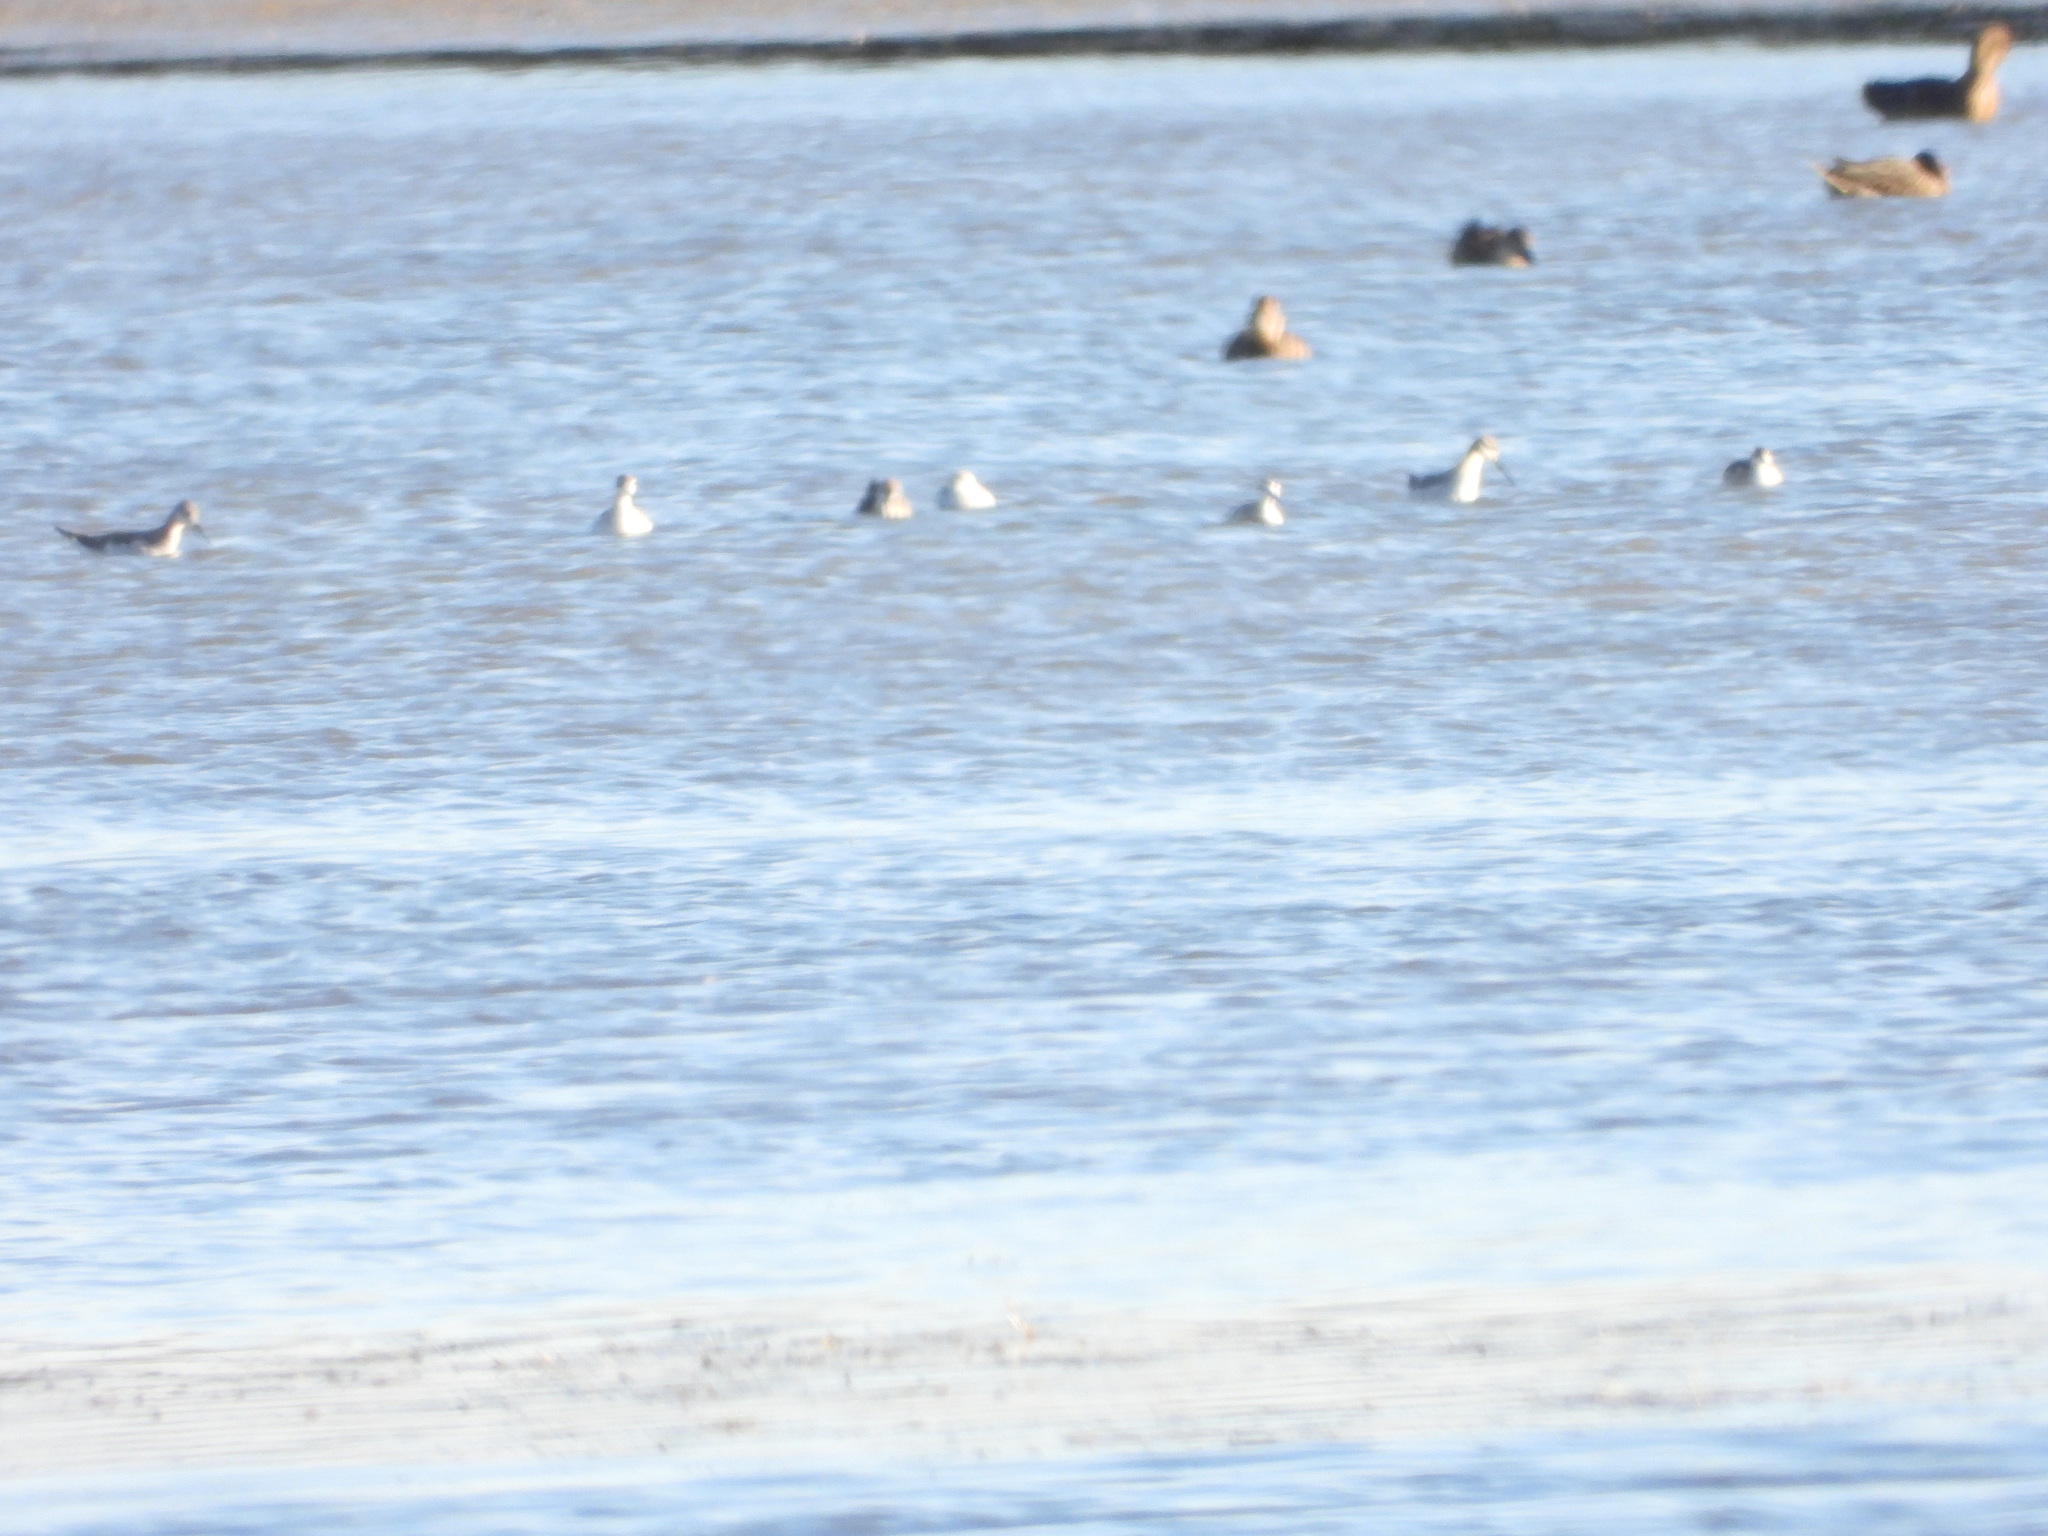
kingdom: Animalia
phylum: Chordata
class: Aves
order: Charadriiformes
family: Scolopacidae
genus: Phalaropus
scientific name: Phalaropus tricolor
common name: Wilson's phalarope
